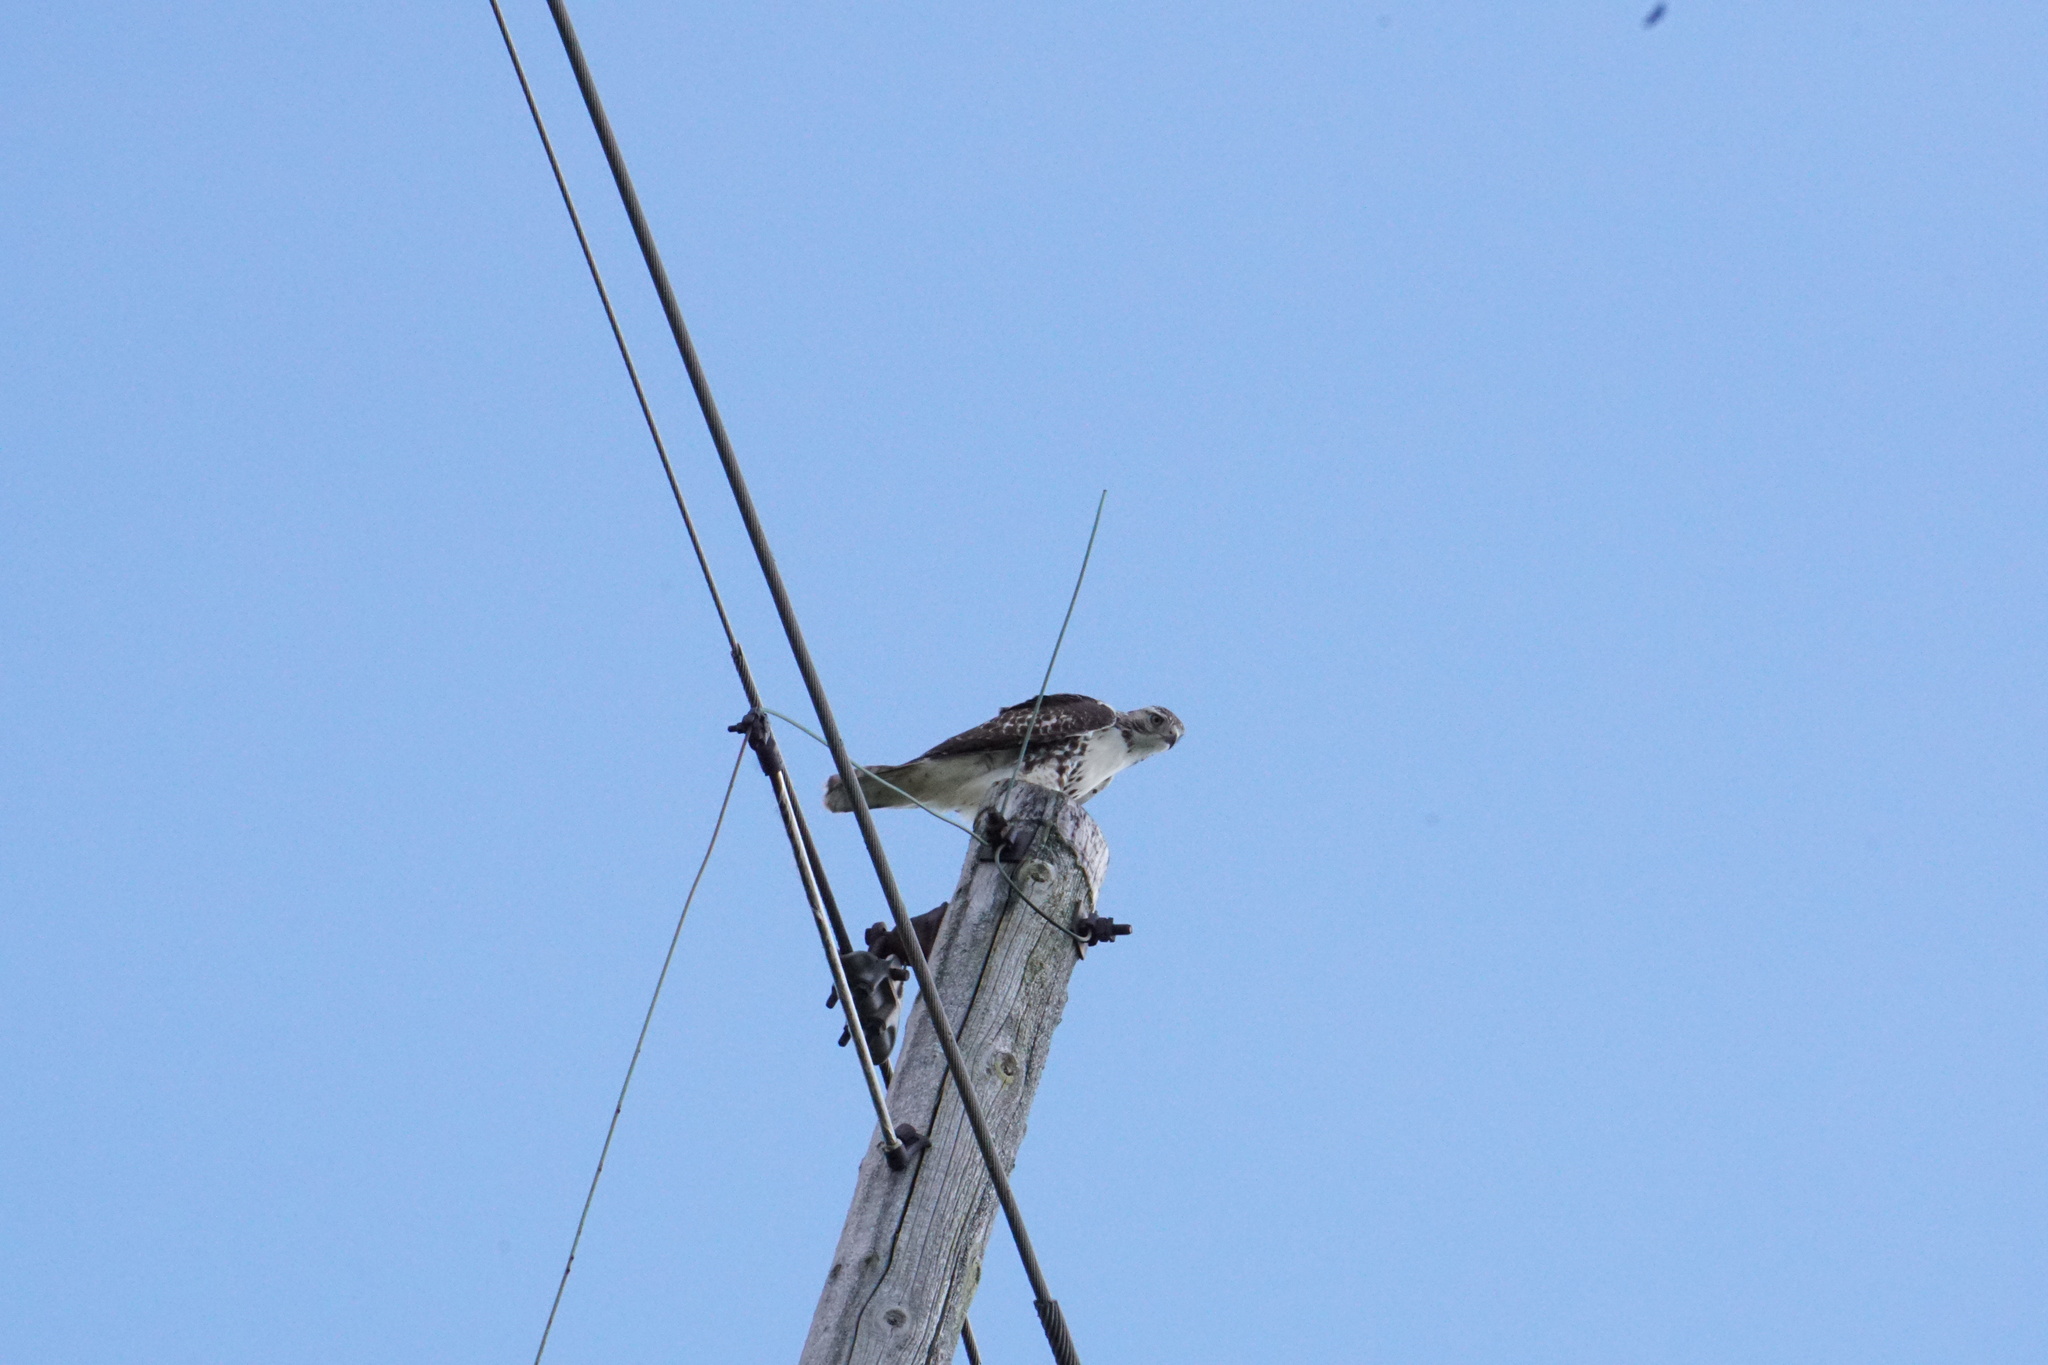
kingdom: Animalia
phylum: Chordata
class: Aves
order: Accipitriformes
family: Accipitridae
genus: Buteo
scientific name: Buteo jamaicensis
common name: Red-tailed hawk
